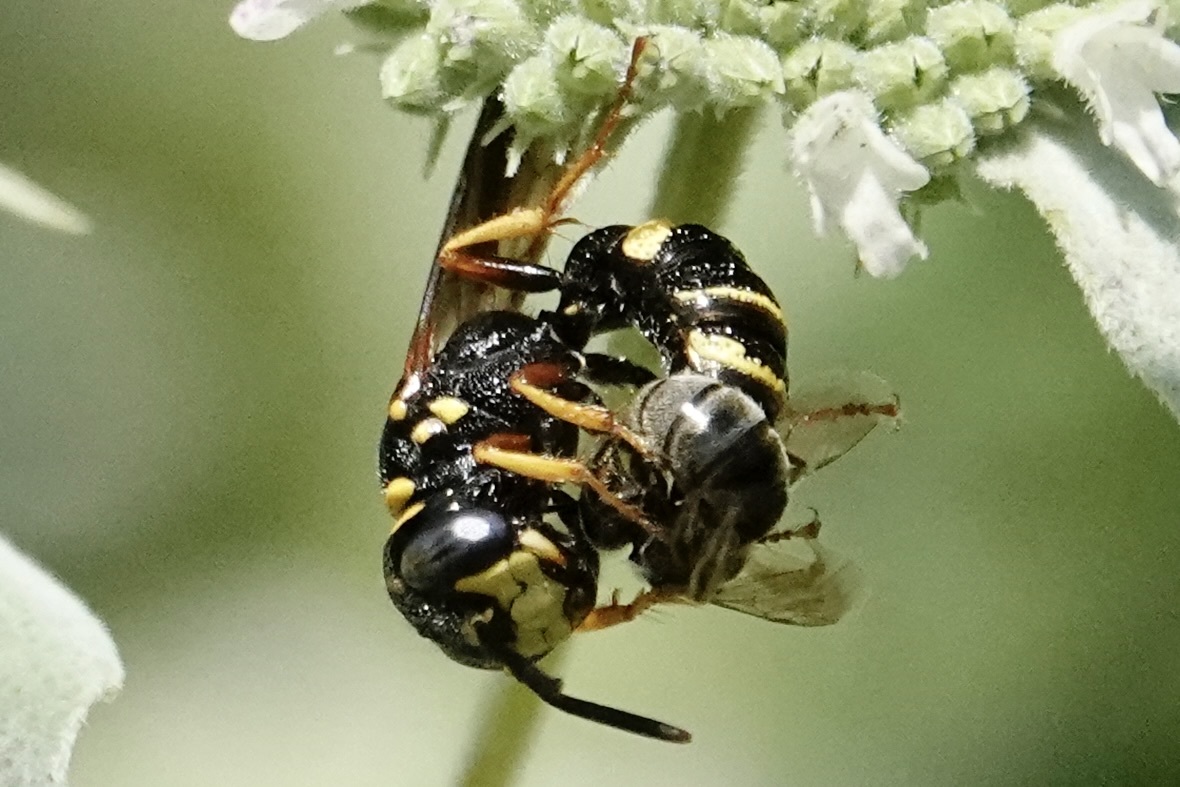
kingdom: Animalia
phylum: Arthropoda
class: Insecta
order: Hymenoptera
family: Crabronidae
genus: Philanthus
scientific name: Philanthus gibbosus
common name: Humped beewolf
